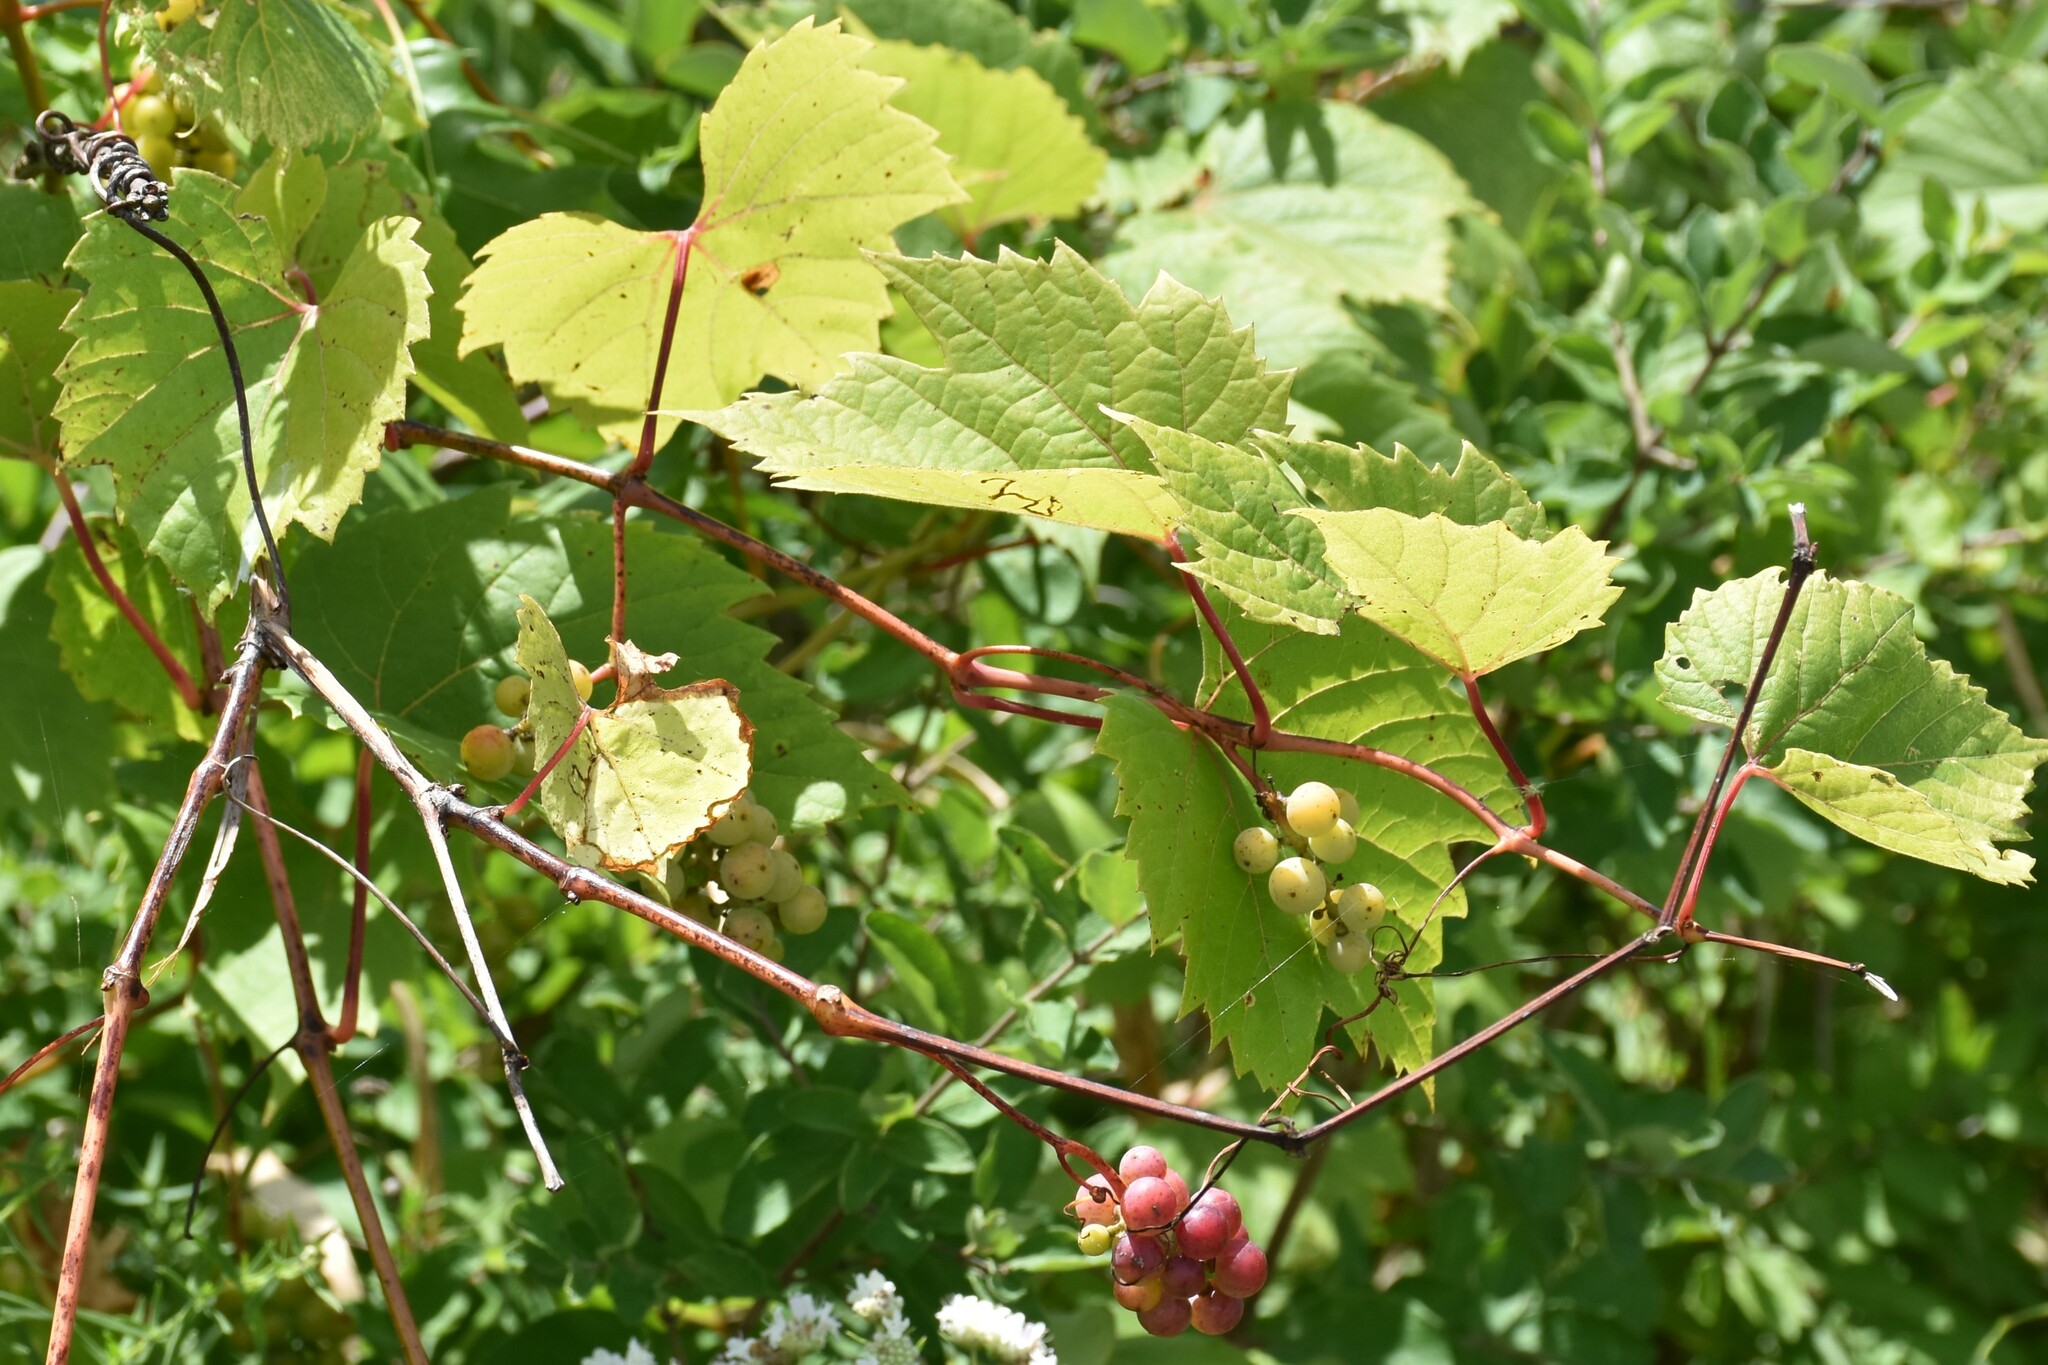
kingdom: Plantae
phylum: Tracheophyta
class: Magnoliopsida
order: Vitales
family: Vitaceae
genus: Vitis
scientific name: Vitis riparia
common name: Frost grape
